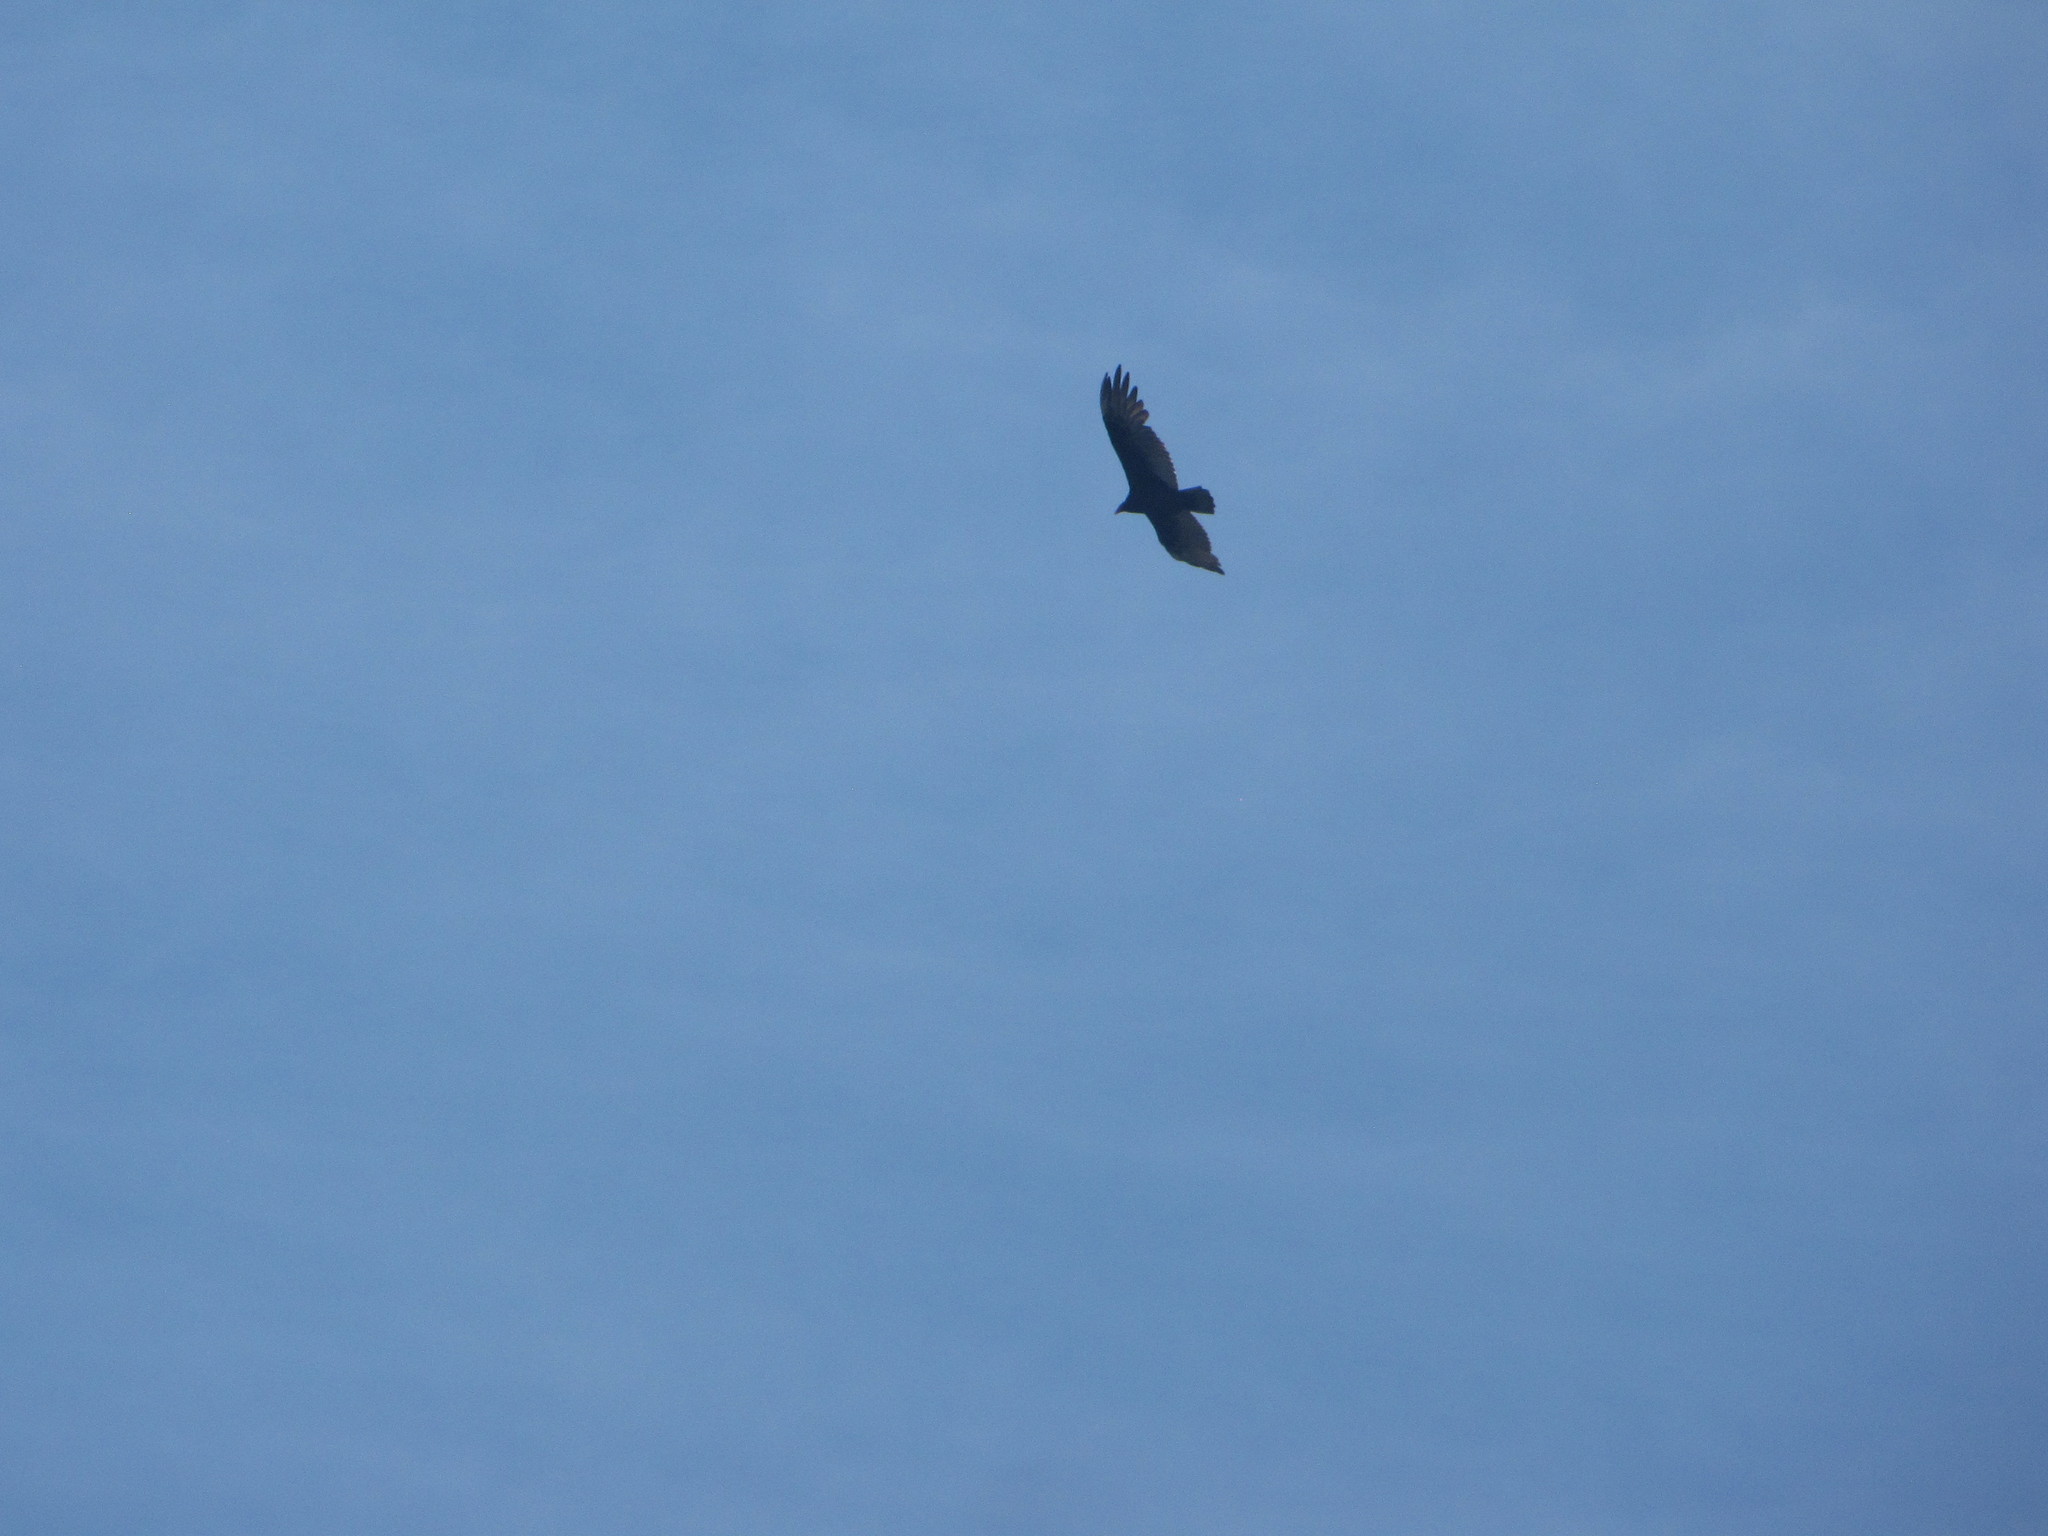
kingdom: Animalia
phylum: Chordata
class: Aves
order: Accipitriformes
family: Cathartidae
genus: Cathartes
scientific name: Cathartes aura
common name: Turkey vulture
